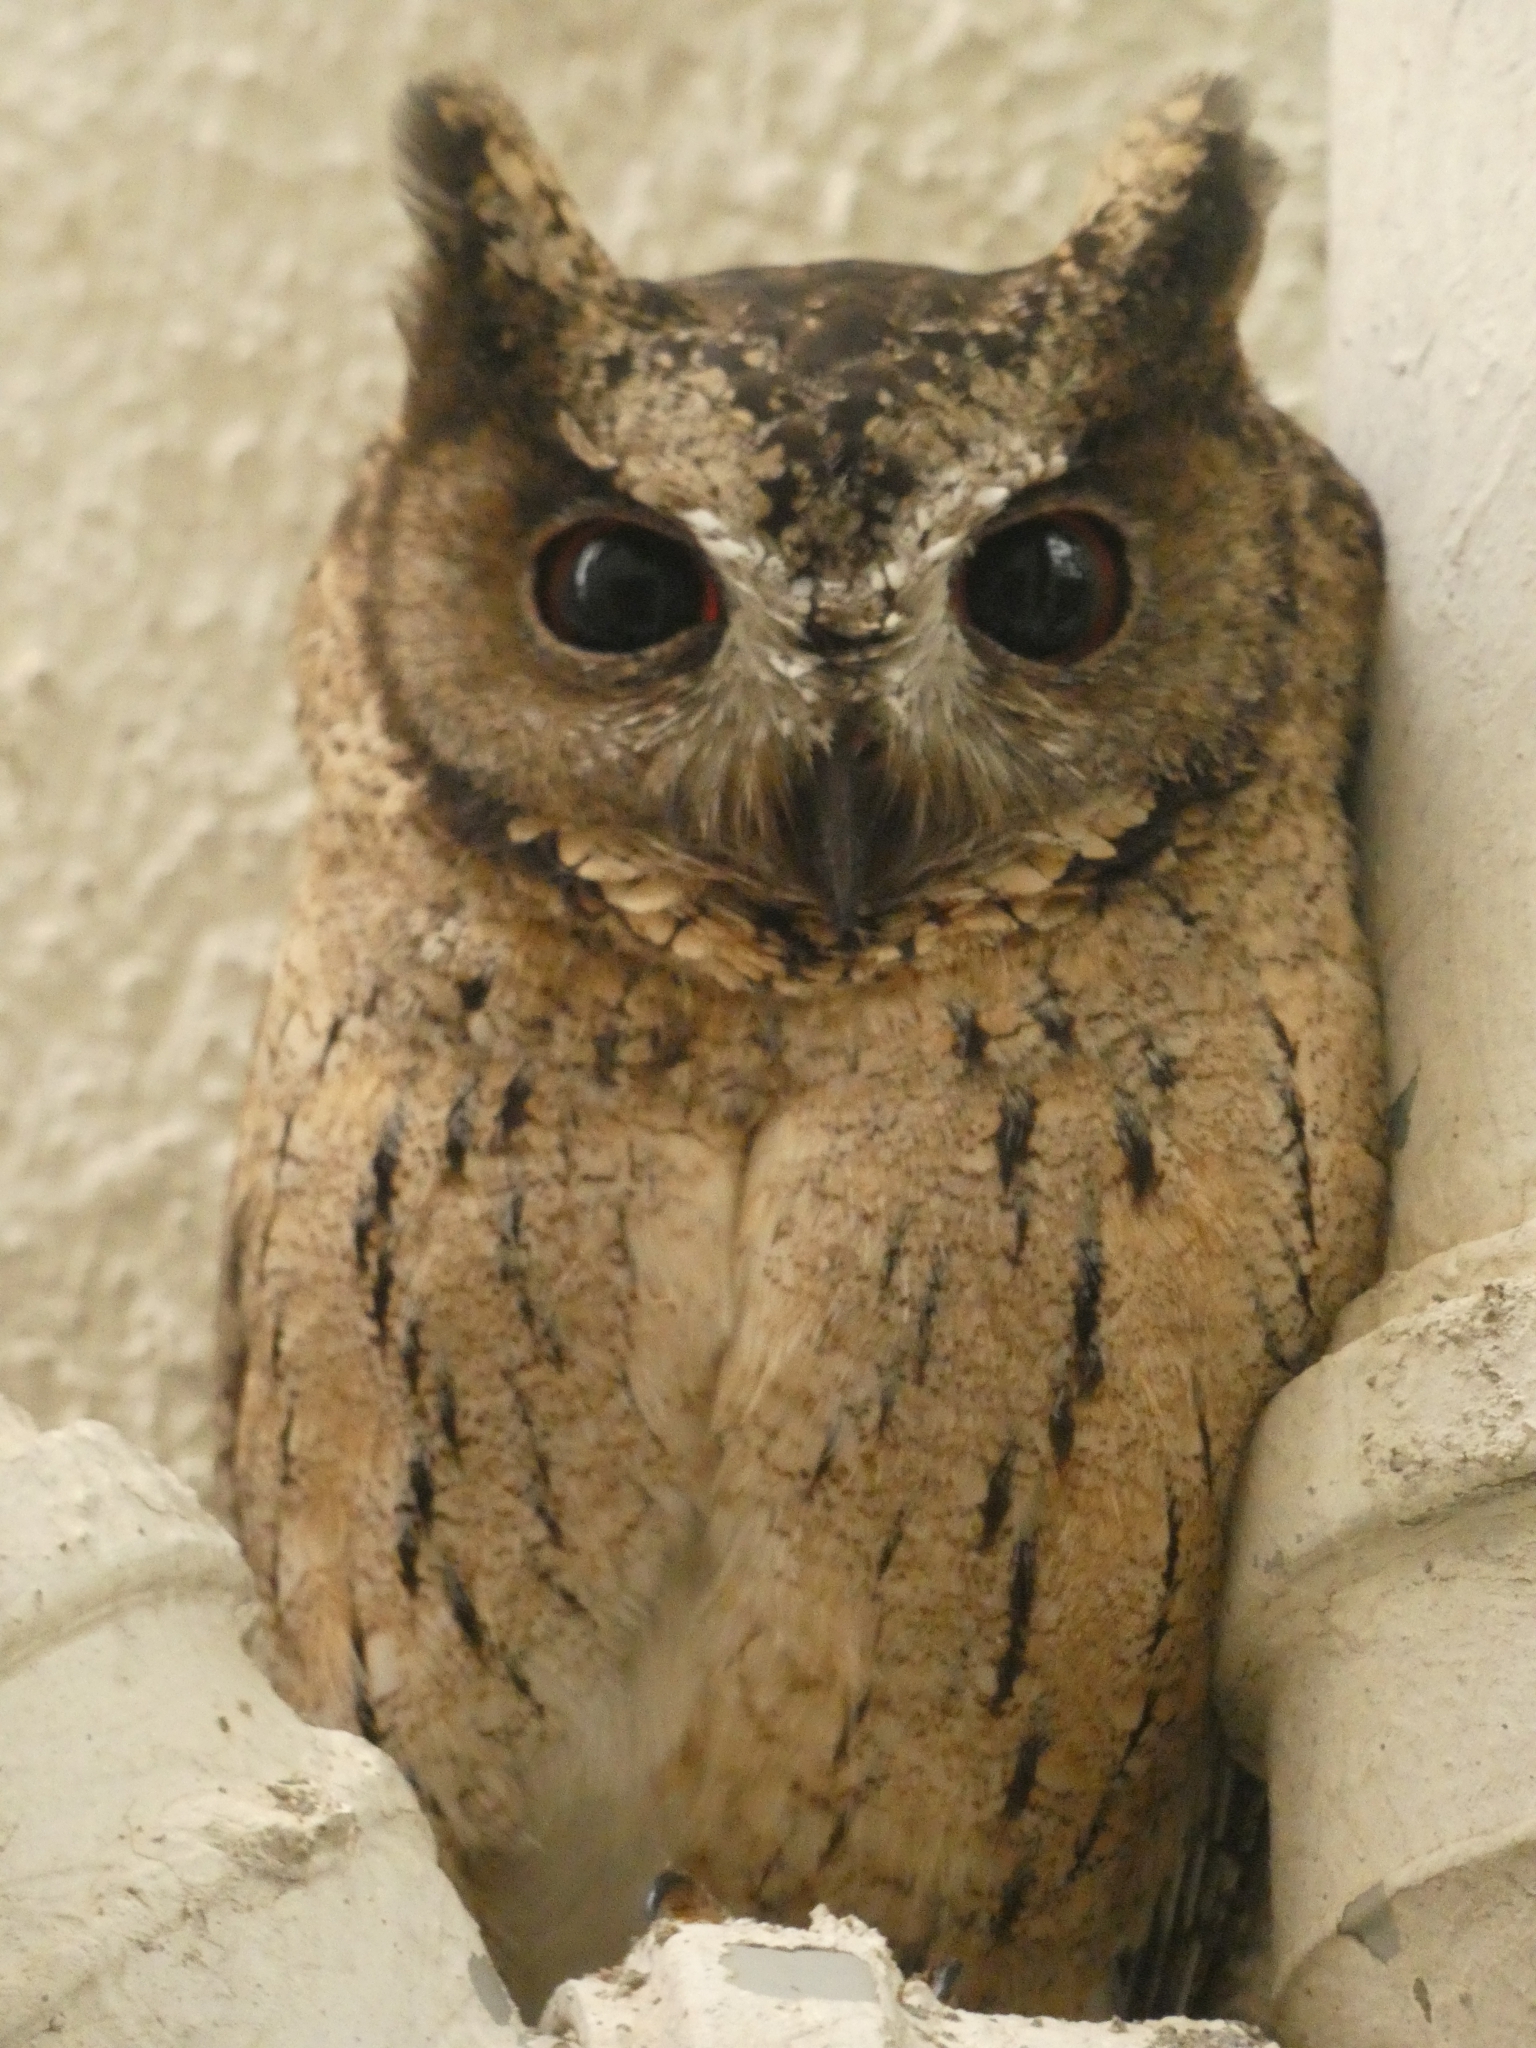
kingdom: Animalia
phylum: Chordata
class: Aves
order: Strigiformes
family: Strigidae
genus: Otus
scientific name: Otus bakkamoena
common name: Indian scops owl
